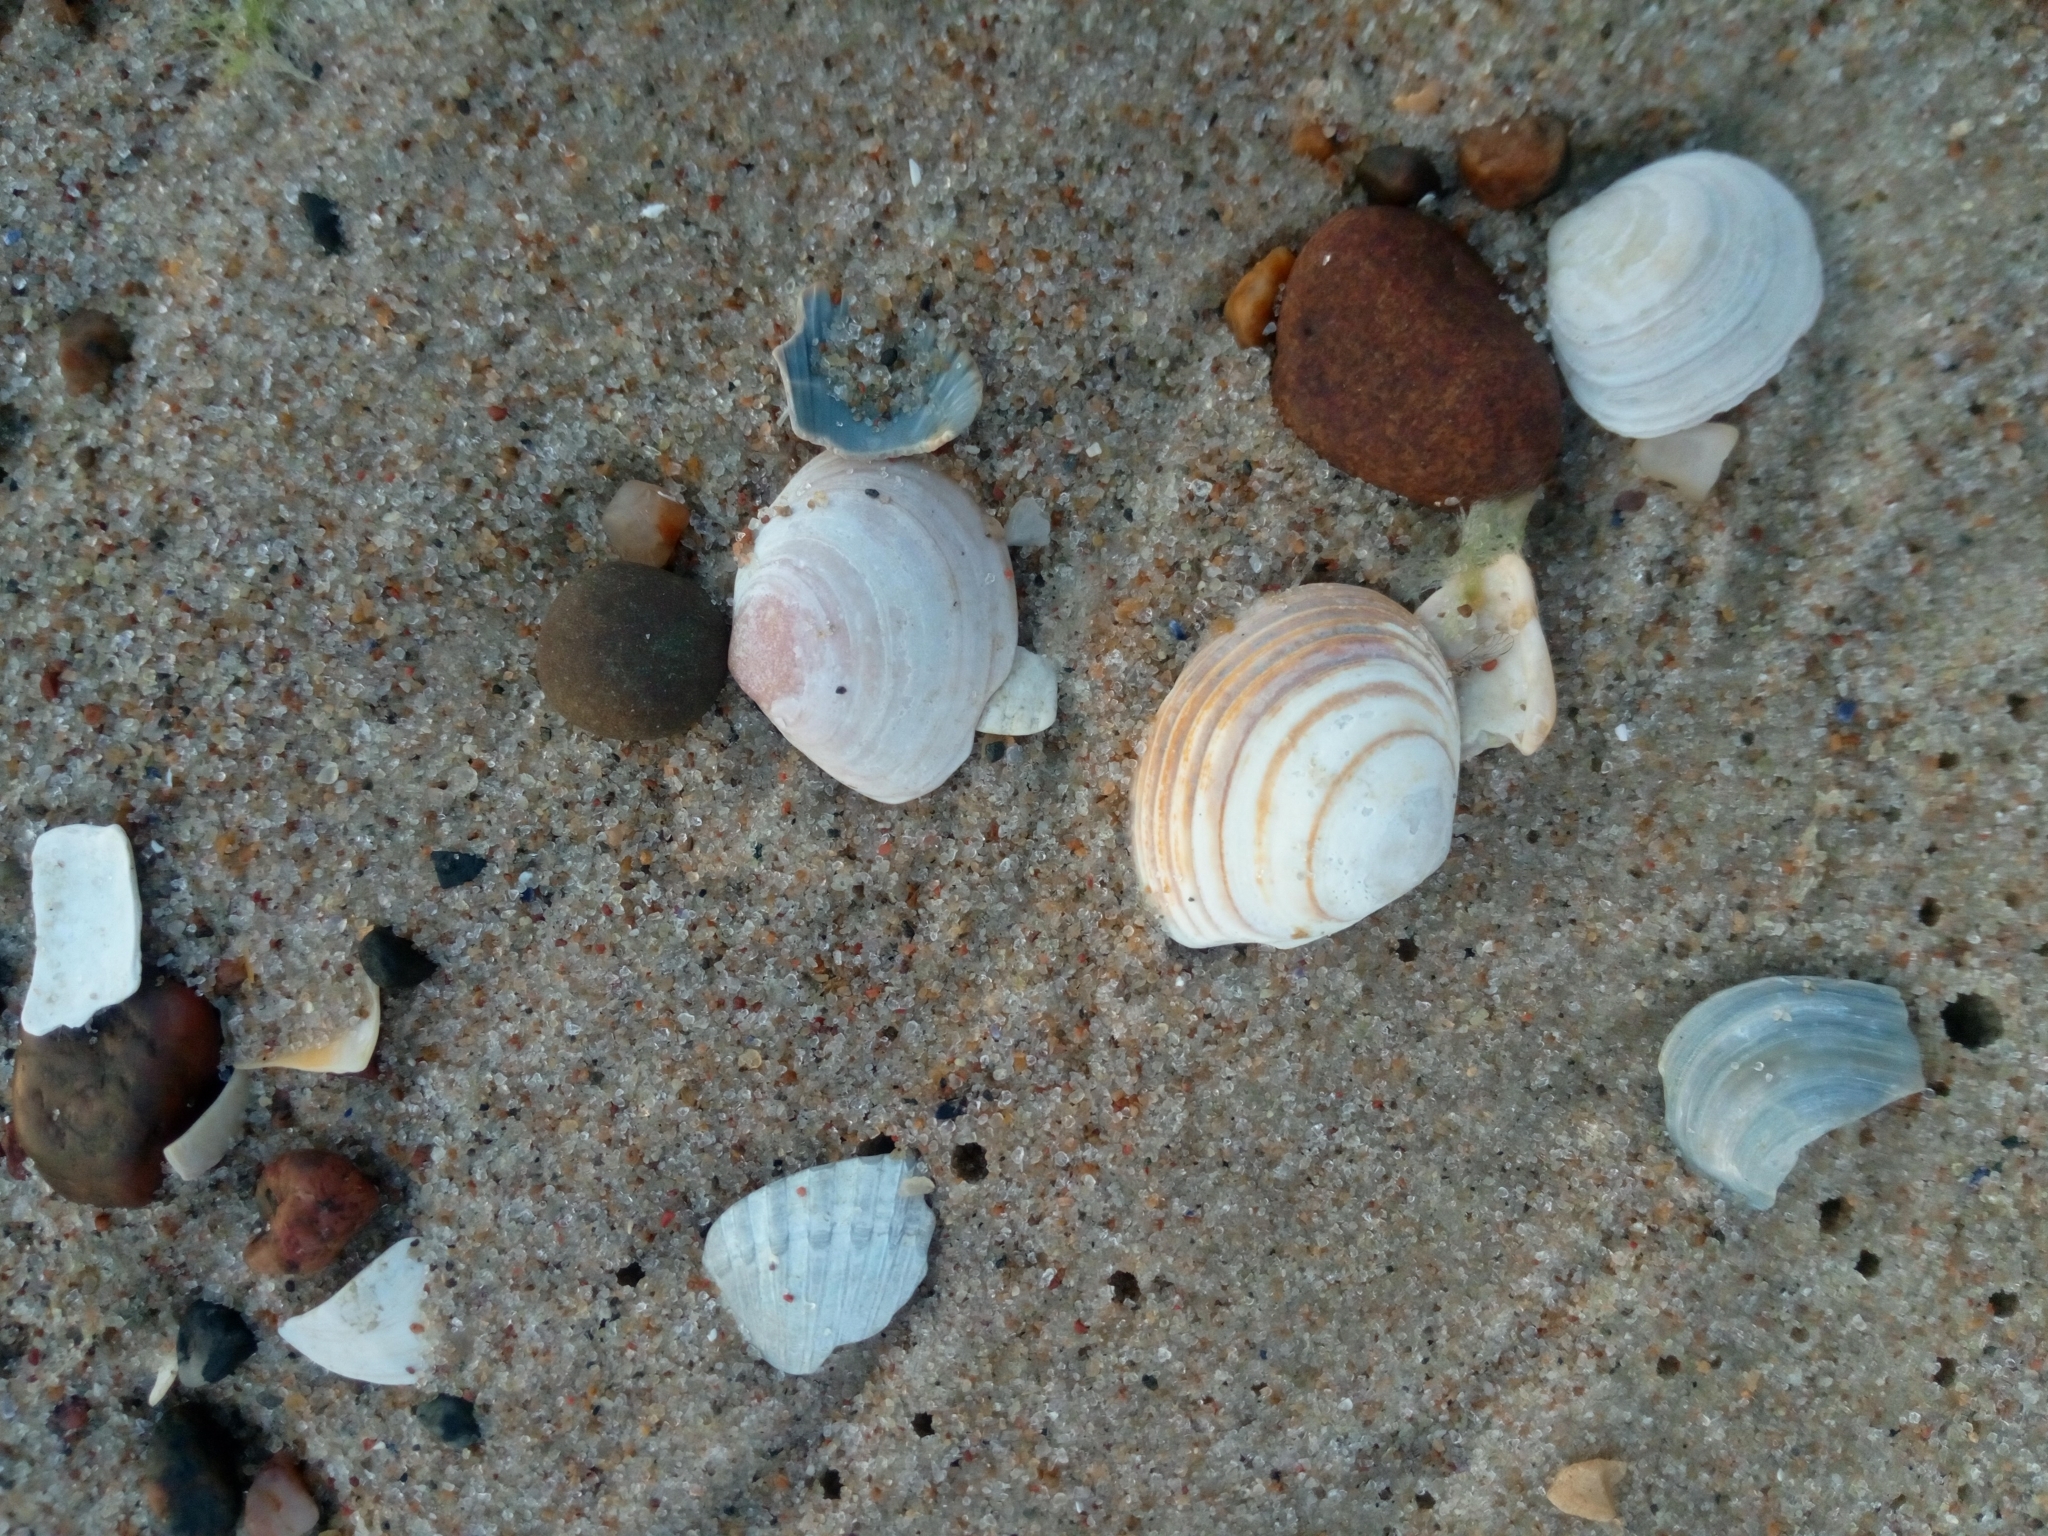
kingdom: Animalia
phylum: Mollusca
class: Bivalvia
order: Cardiida
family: Tellinidae
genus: Macoma
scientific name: Macoma balthica
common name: Baltic tellin
